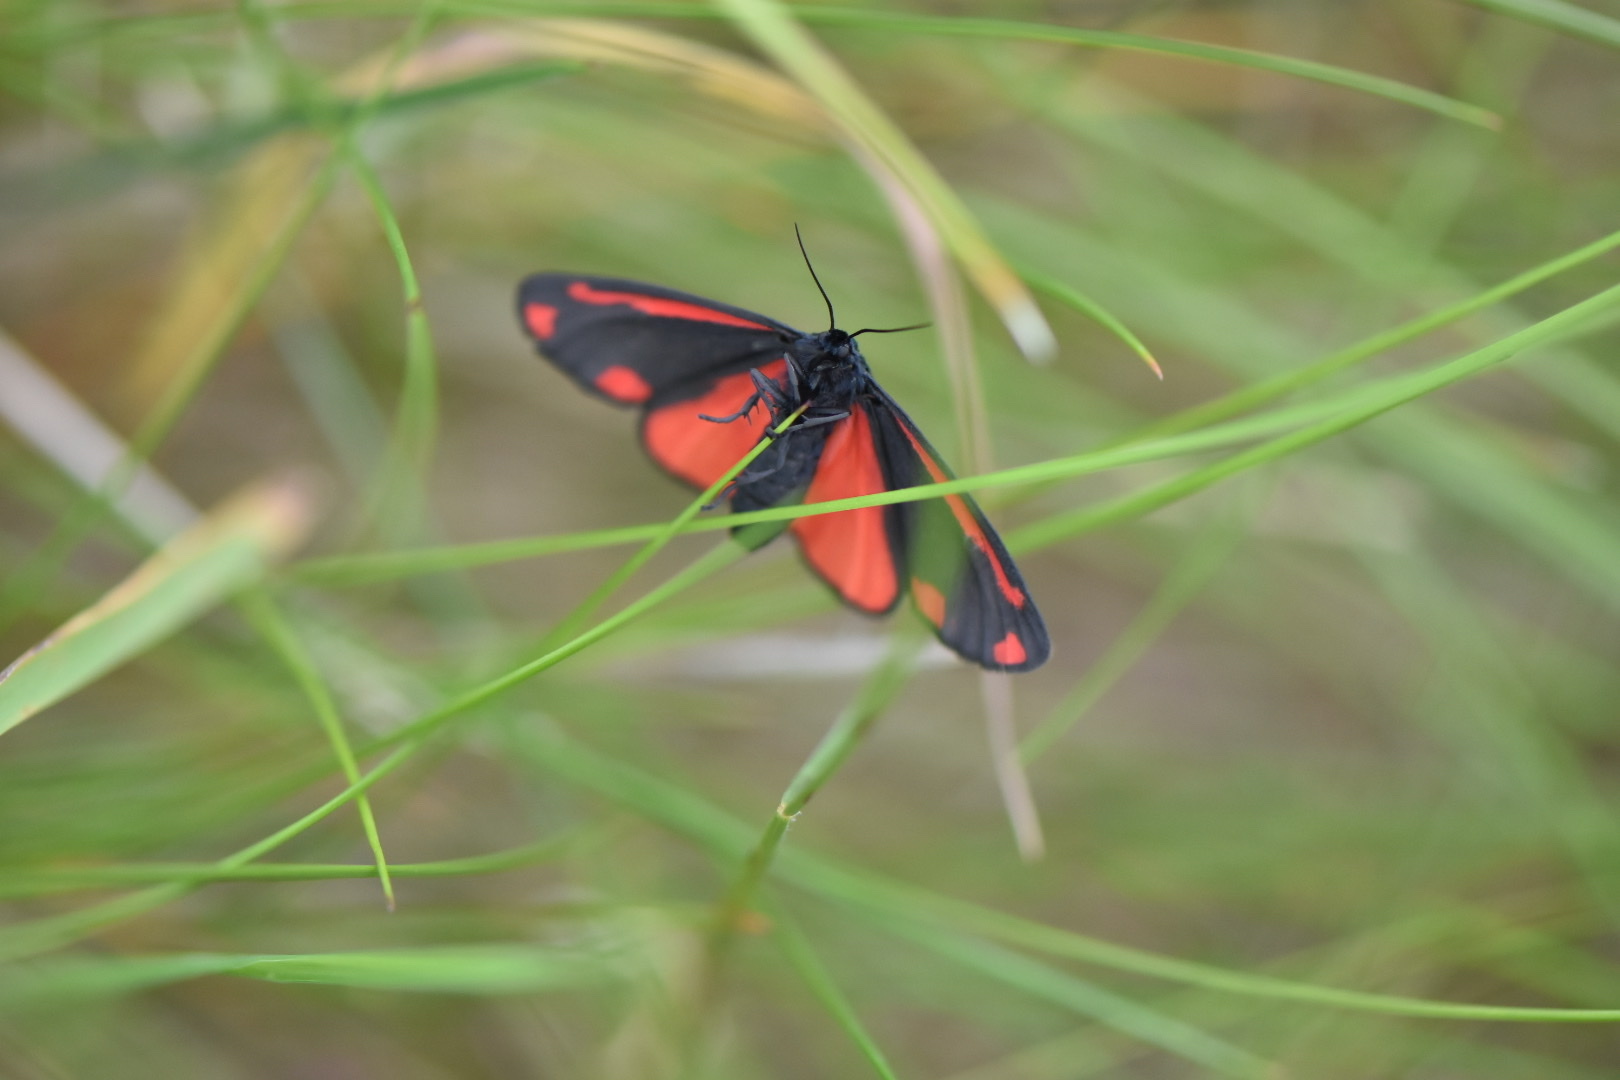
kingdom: Animalia
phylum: Arthropoda
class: Insecta
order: Lepidoptera
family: Erebidae
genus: Tyria
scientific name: Tyria jacobaeae
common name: Cinnabar
